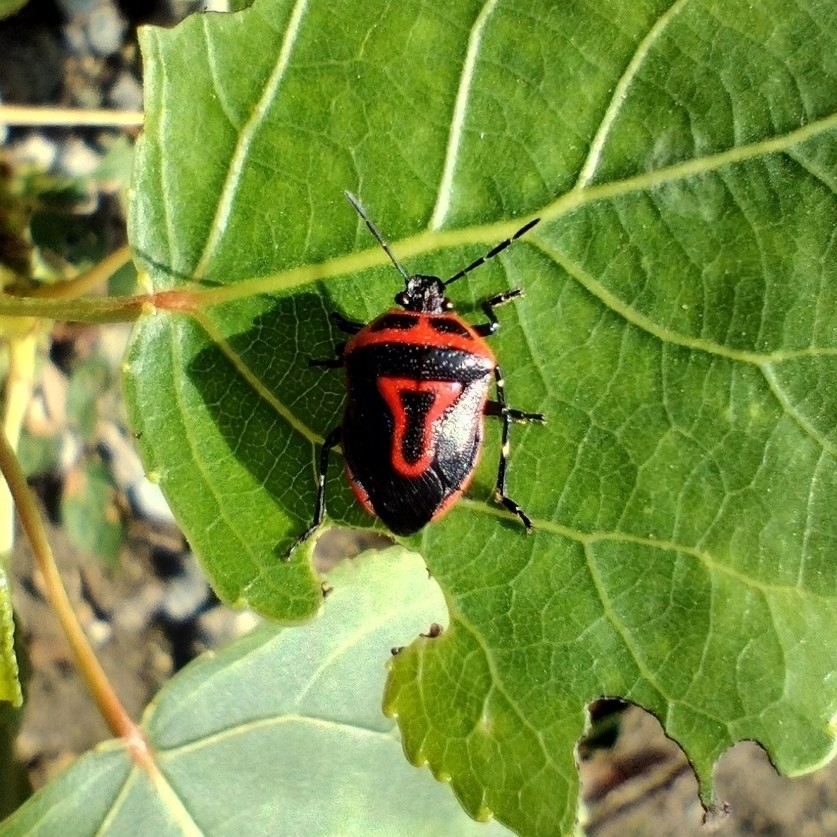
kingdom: Animalia
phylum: Arthropoda
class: Insecta
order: Hemiptera
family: Pentatomidae
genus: Perillus
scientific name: Perillus bioculatus
